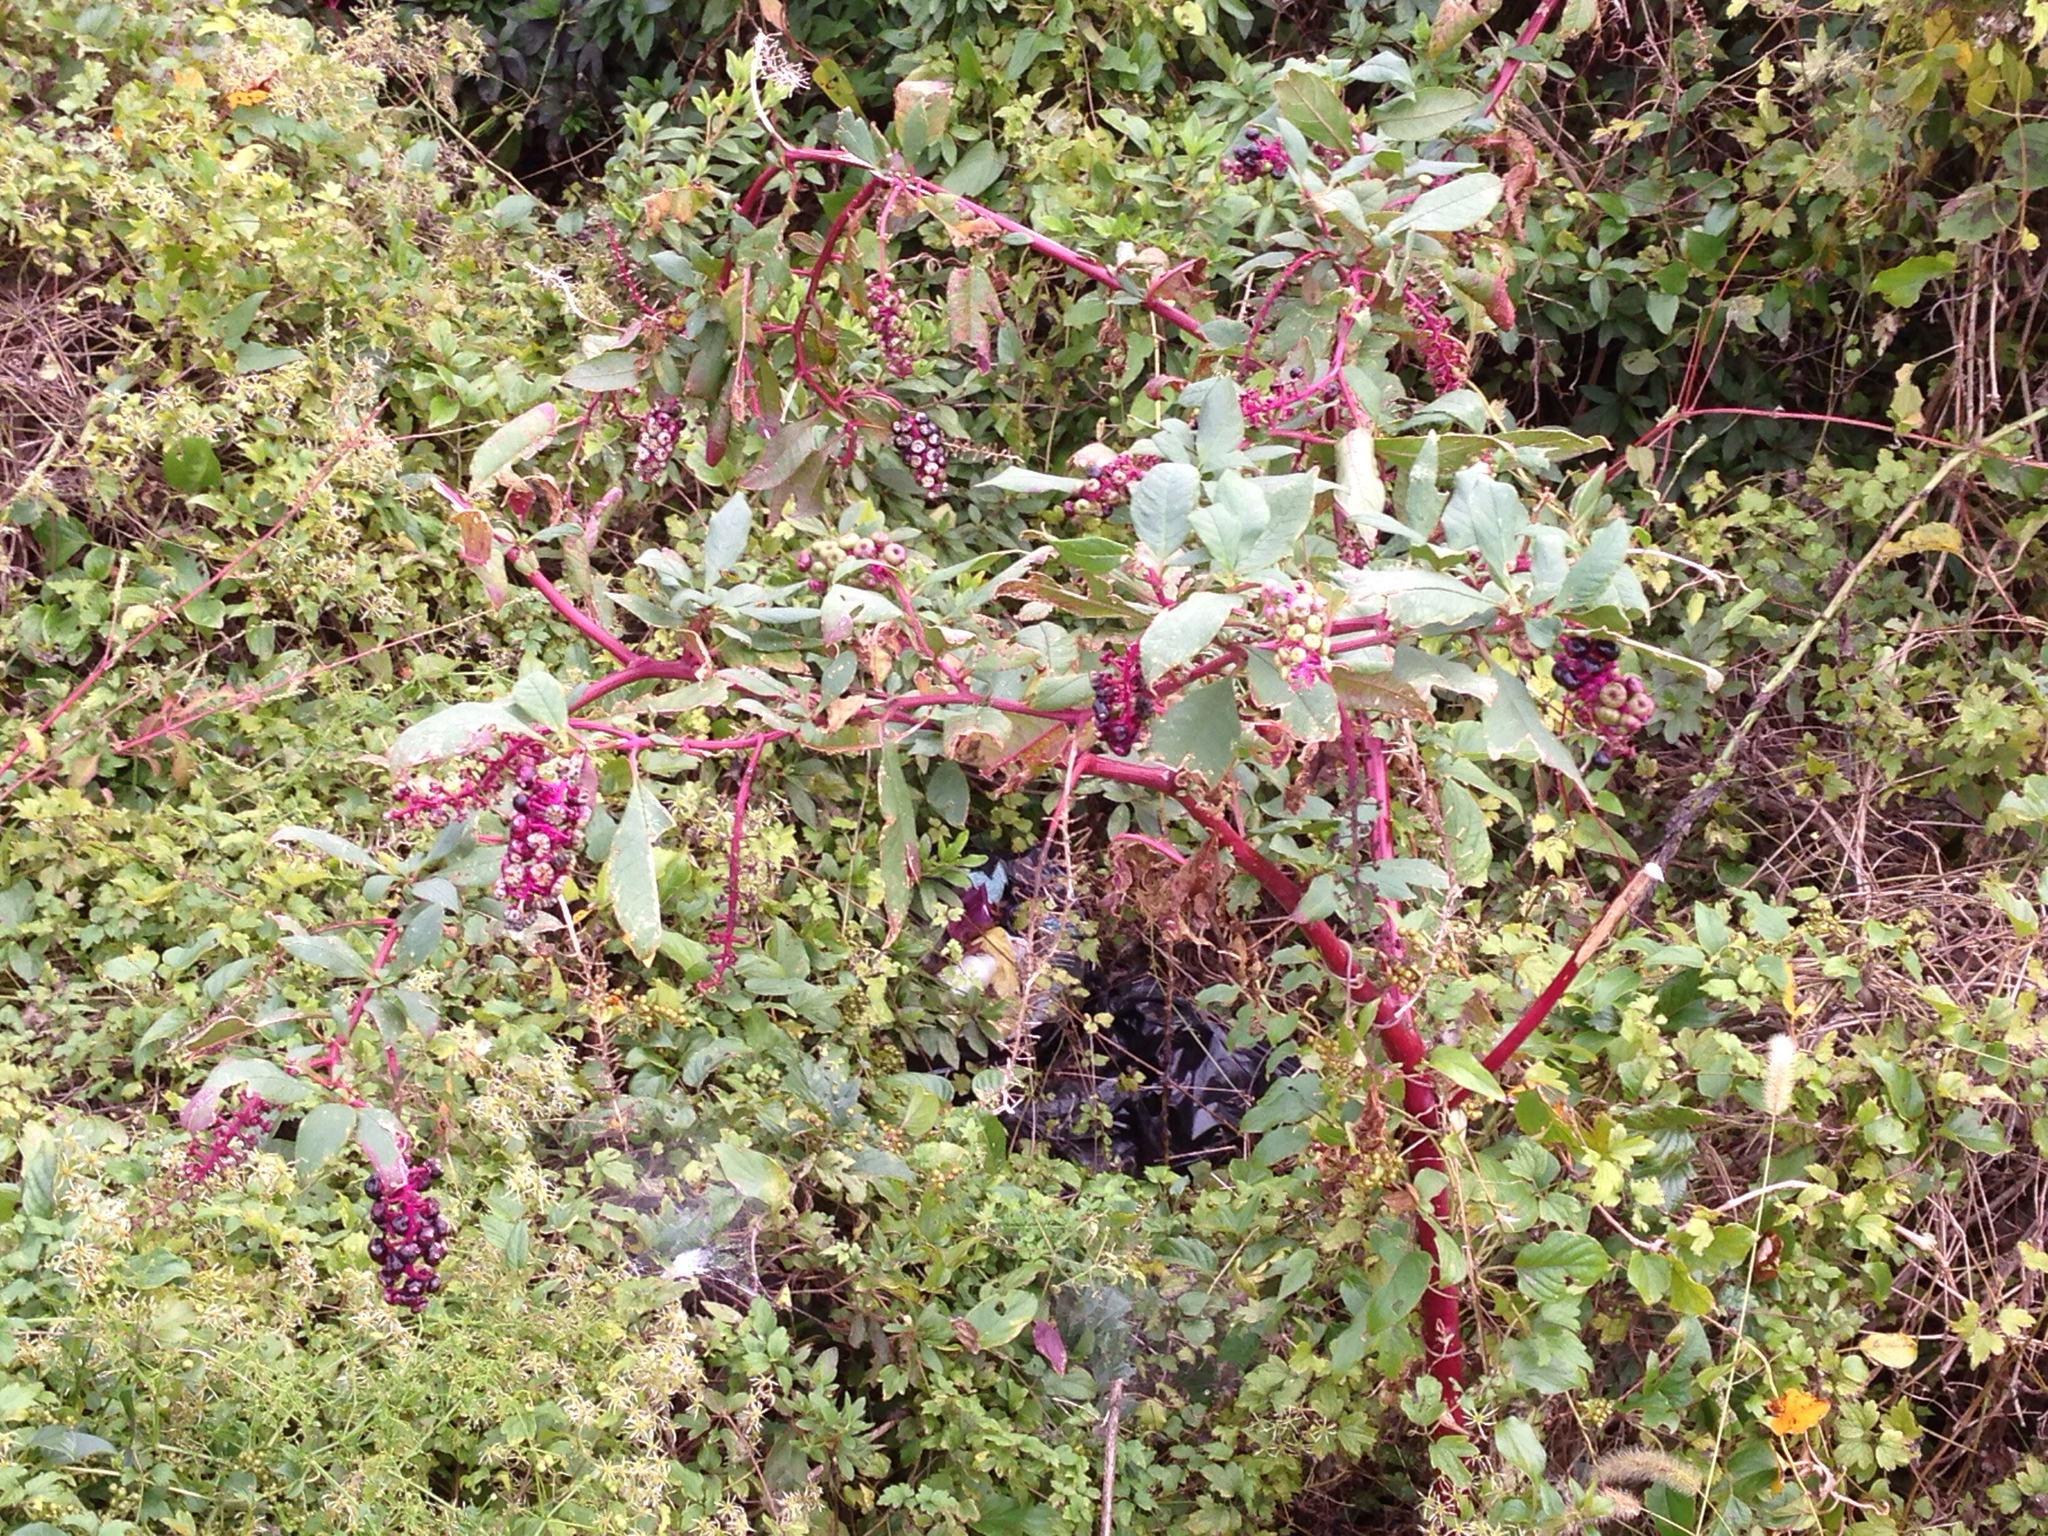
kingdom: Plantae
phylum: Tracheophyta
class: Magnoliopsida
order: Caryophyllales
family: Phytolaccaceae
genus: Phytolacca
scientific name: Phytolacca americana
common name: American pokeweed
